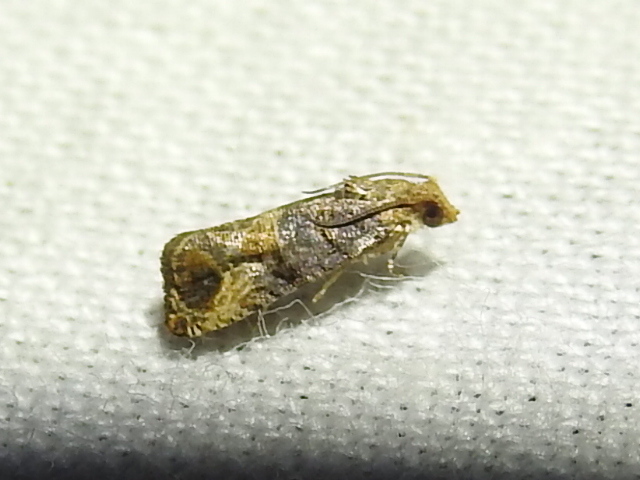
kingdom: Animalia
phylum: Arthropoda
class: Insecta
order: Lepidoptera
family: Tortricidae
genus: Paralobesia
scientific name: Paralobesia viteana
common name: Grape berry moth
